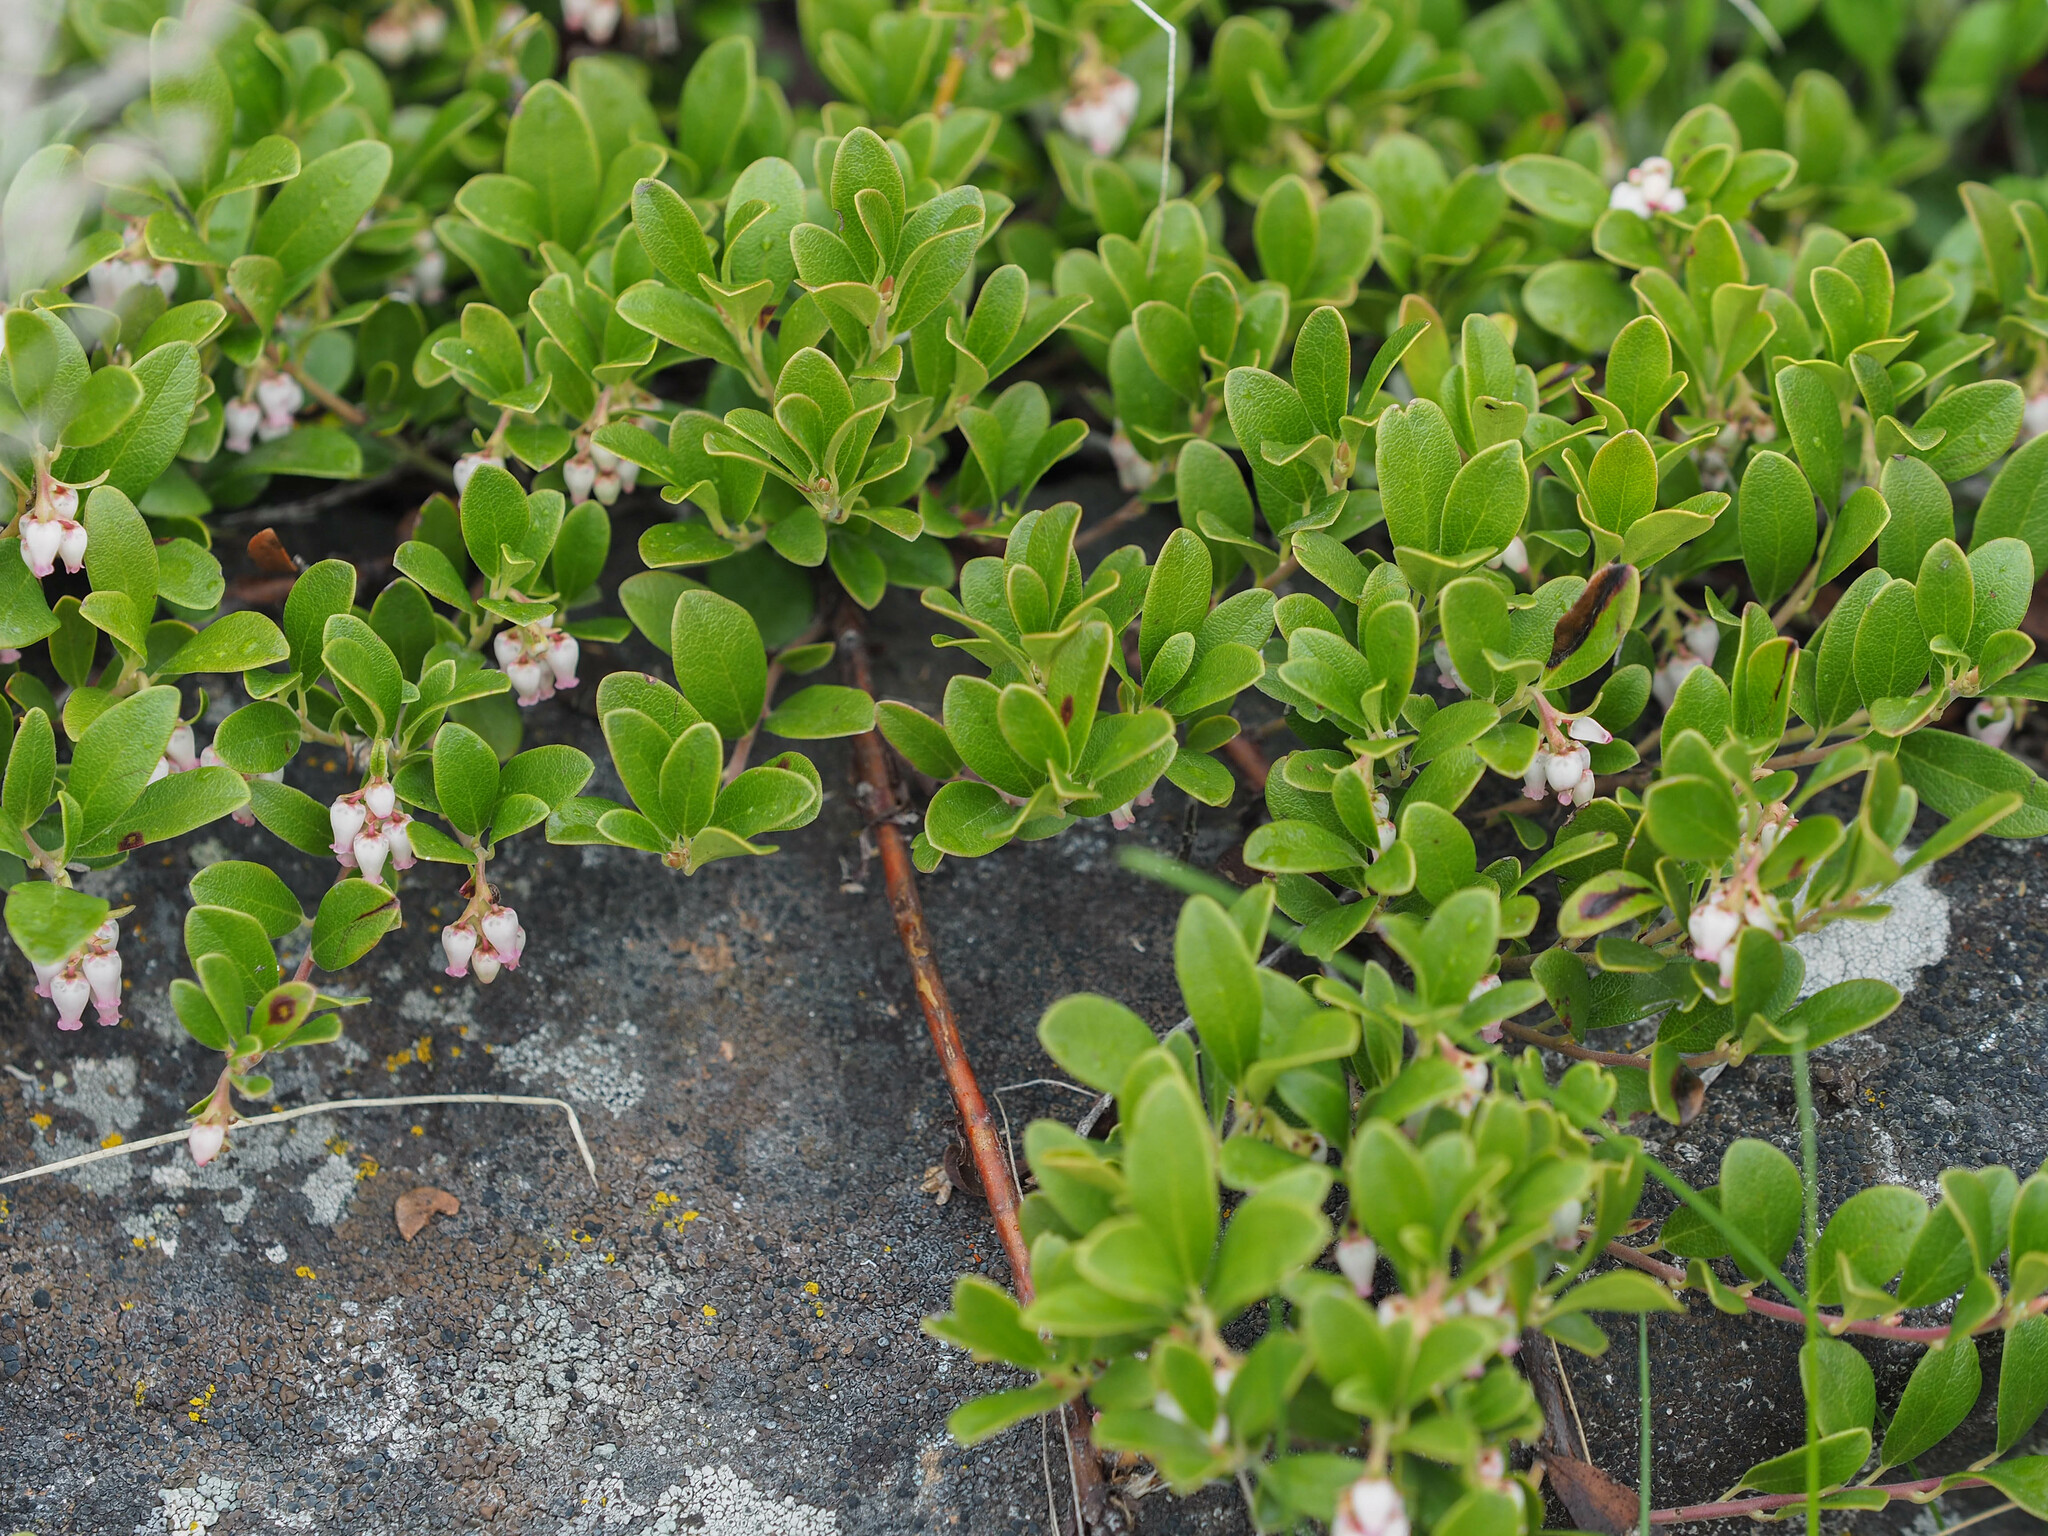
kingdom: Plantae
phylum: Tracheophyta
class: Magnoliopsida
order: Ericales
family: Ericaceae
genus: Arctostaphylos
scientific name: Arctostaphylos uva-ursi
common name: Bearberry
